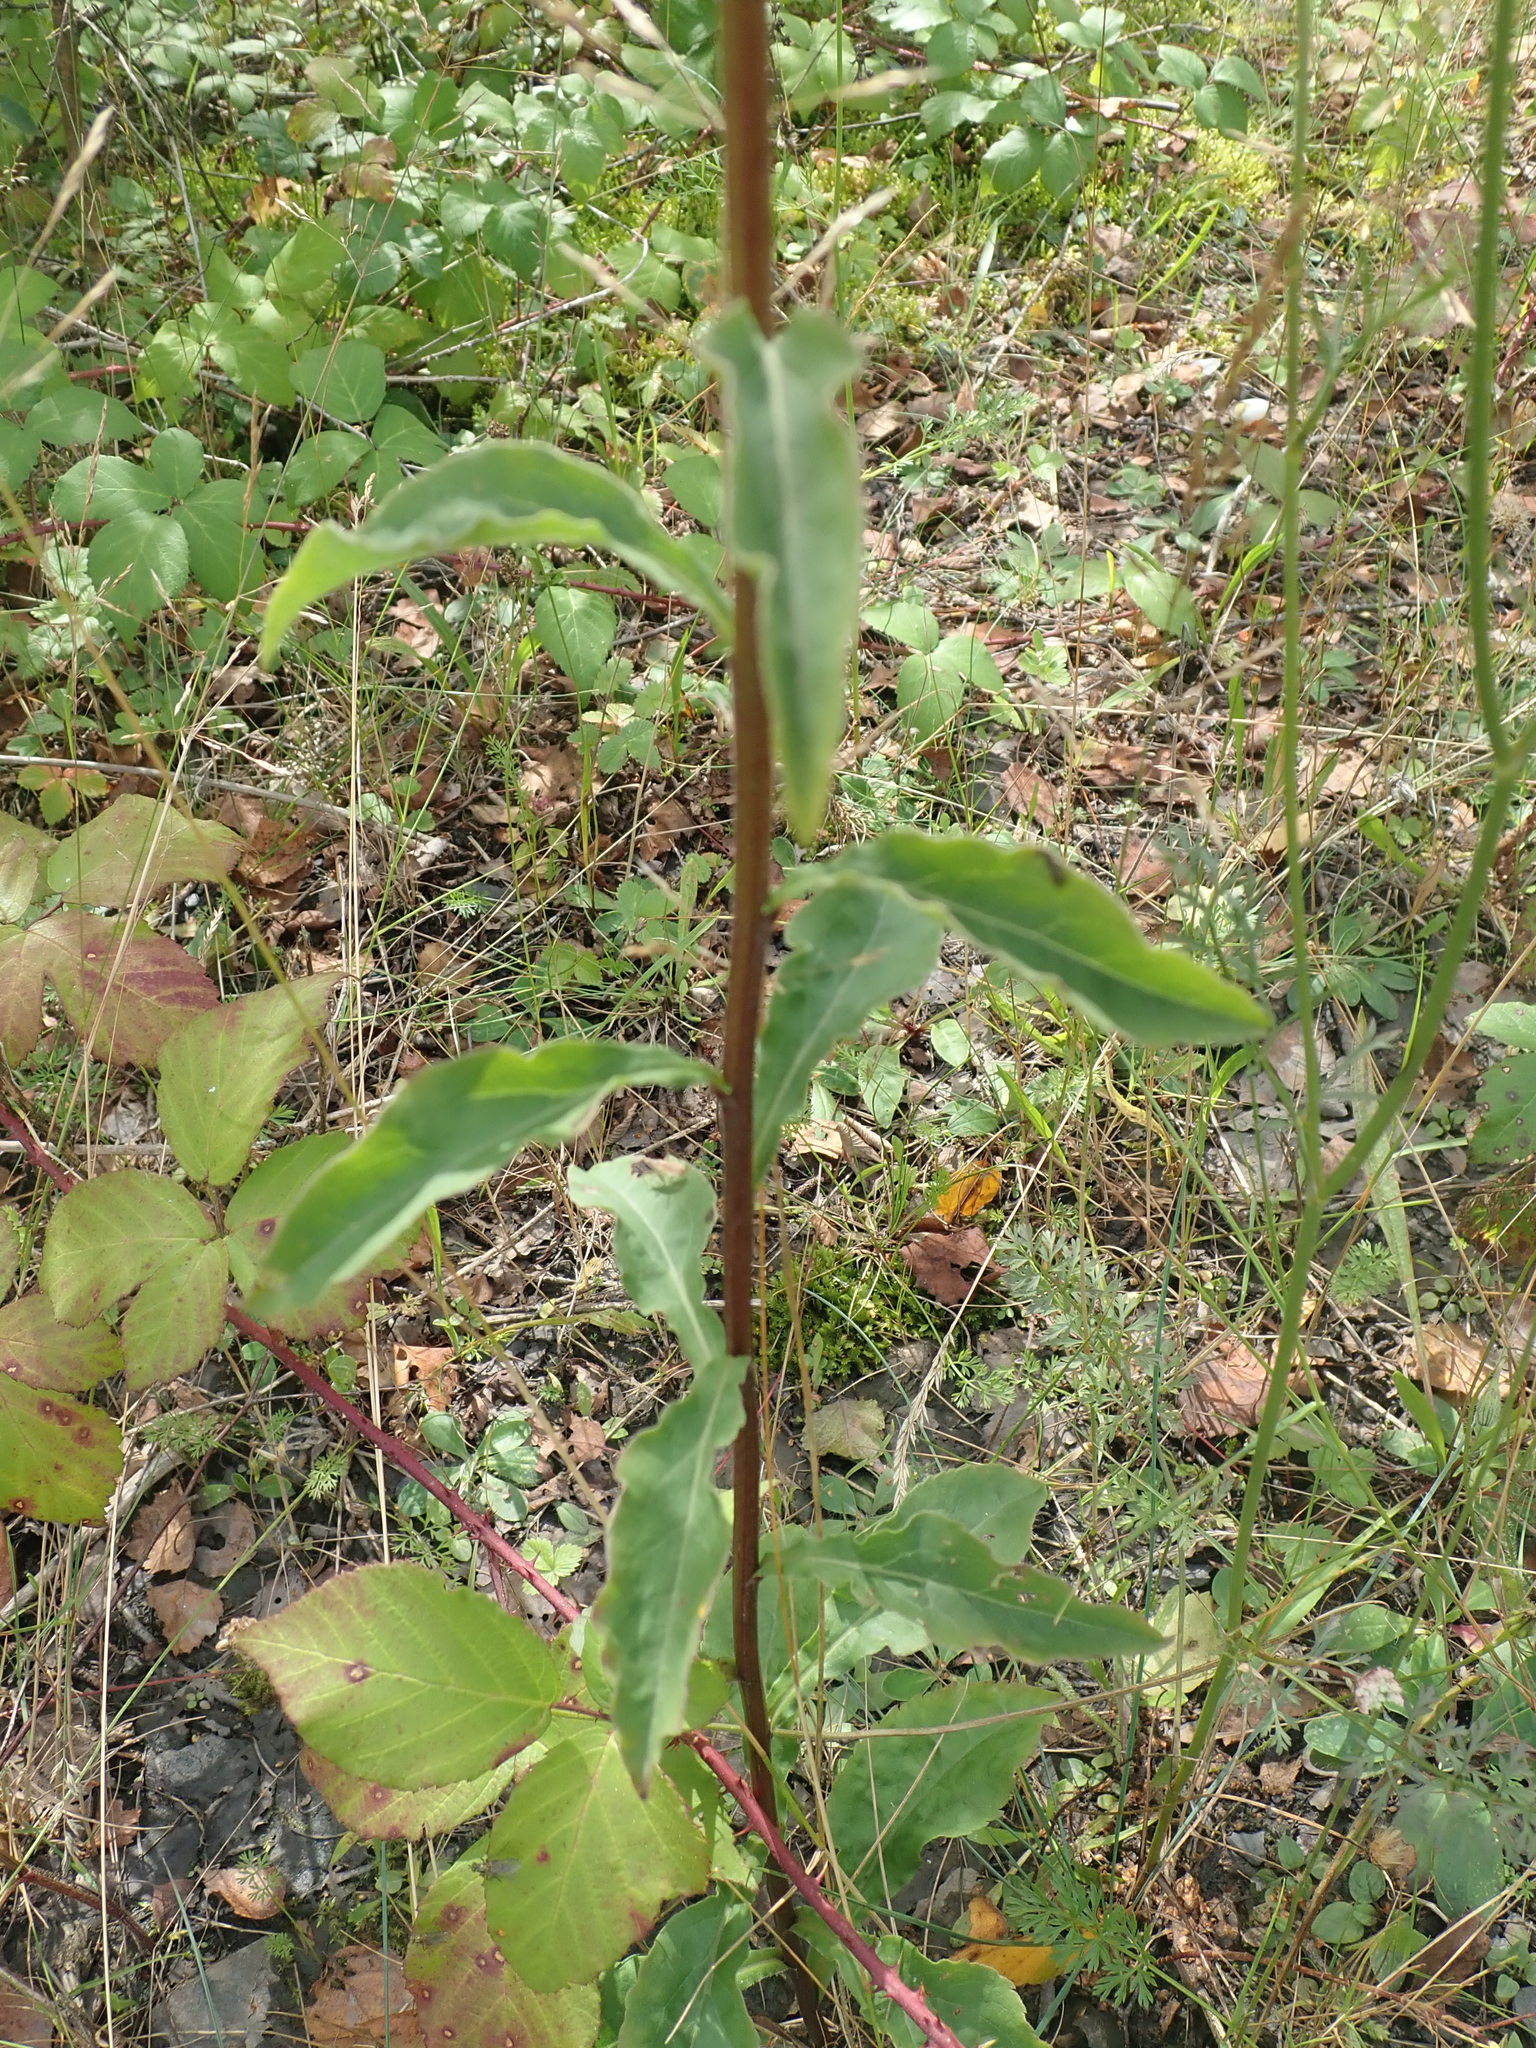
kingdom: Plantae
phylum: Tracheophyta
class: Magnoliopsida
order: Asterales
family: Asteraceae
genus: Solidago
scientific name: Solidago virgaurea
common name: Goldenrod
